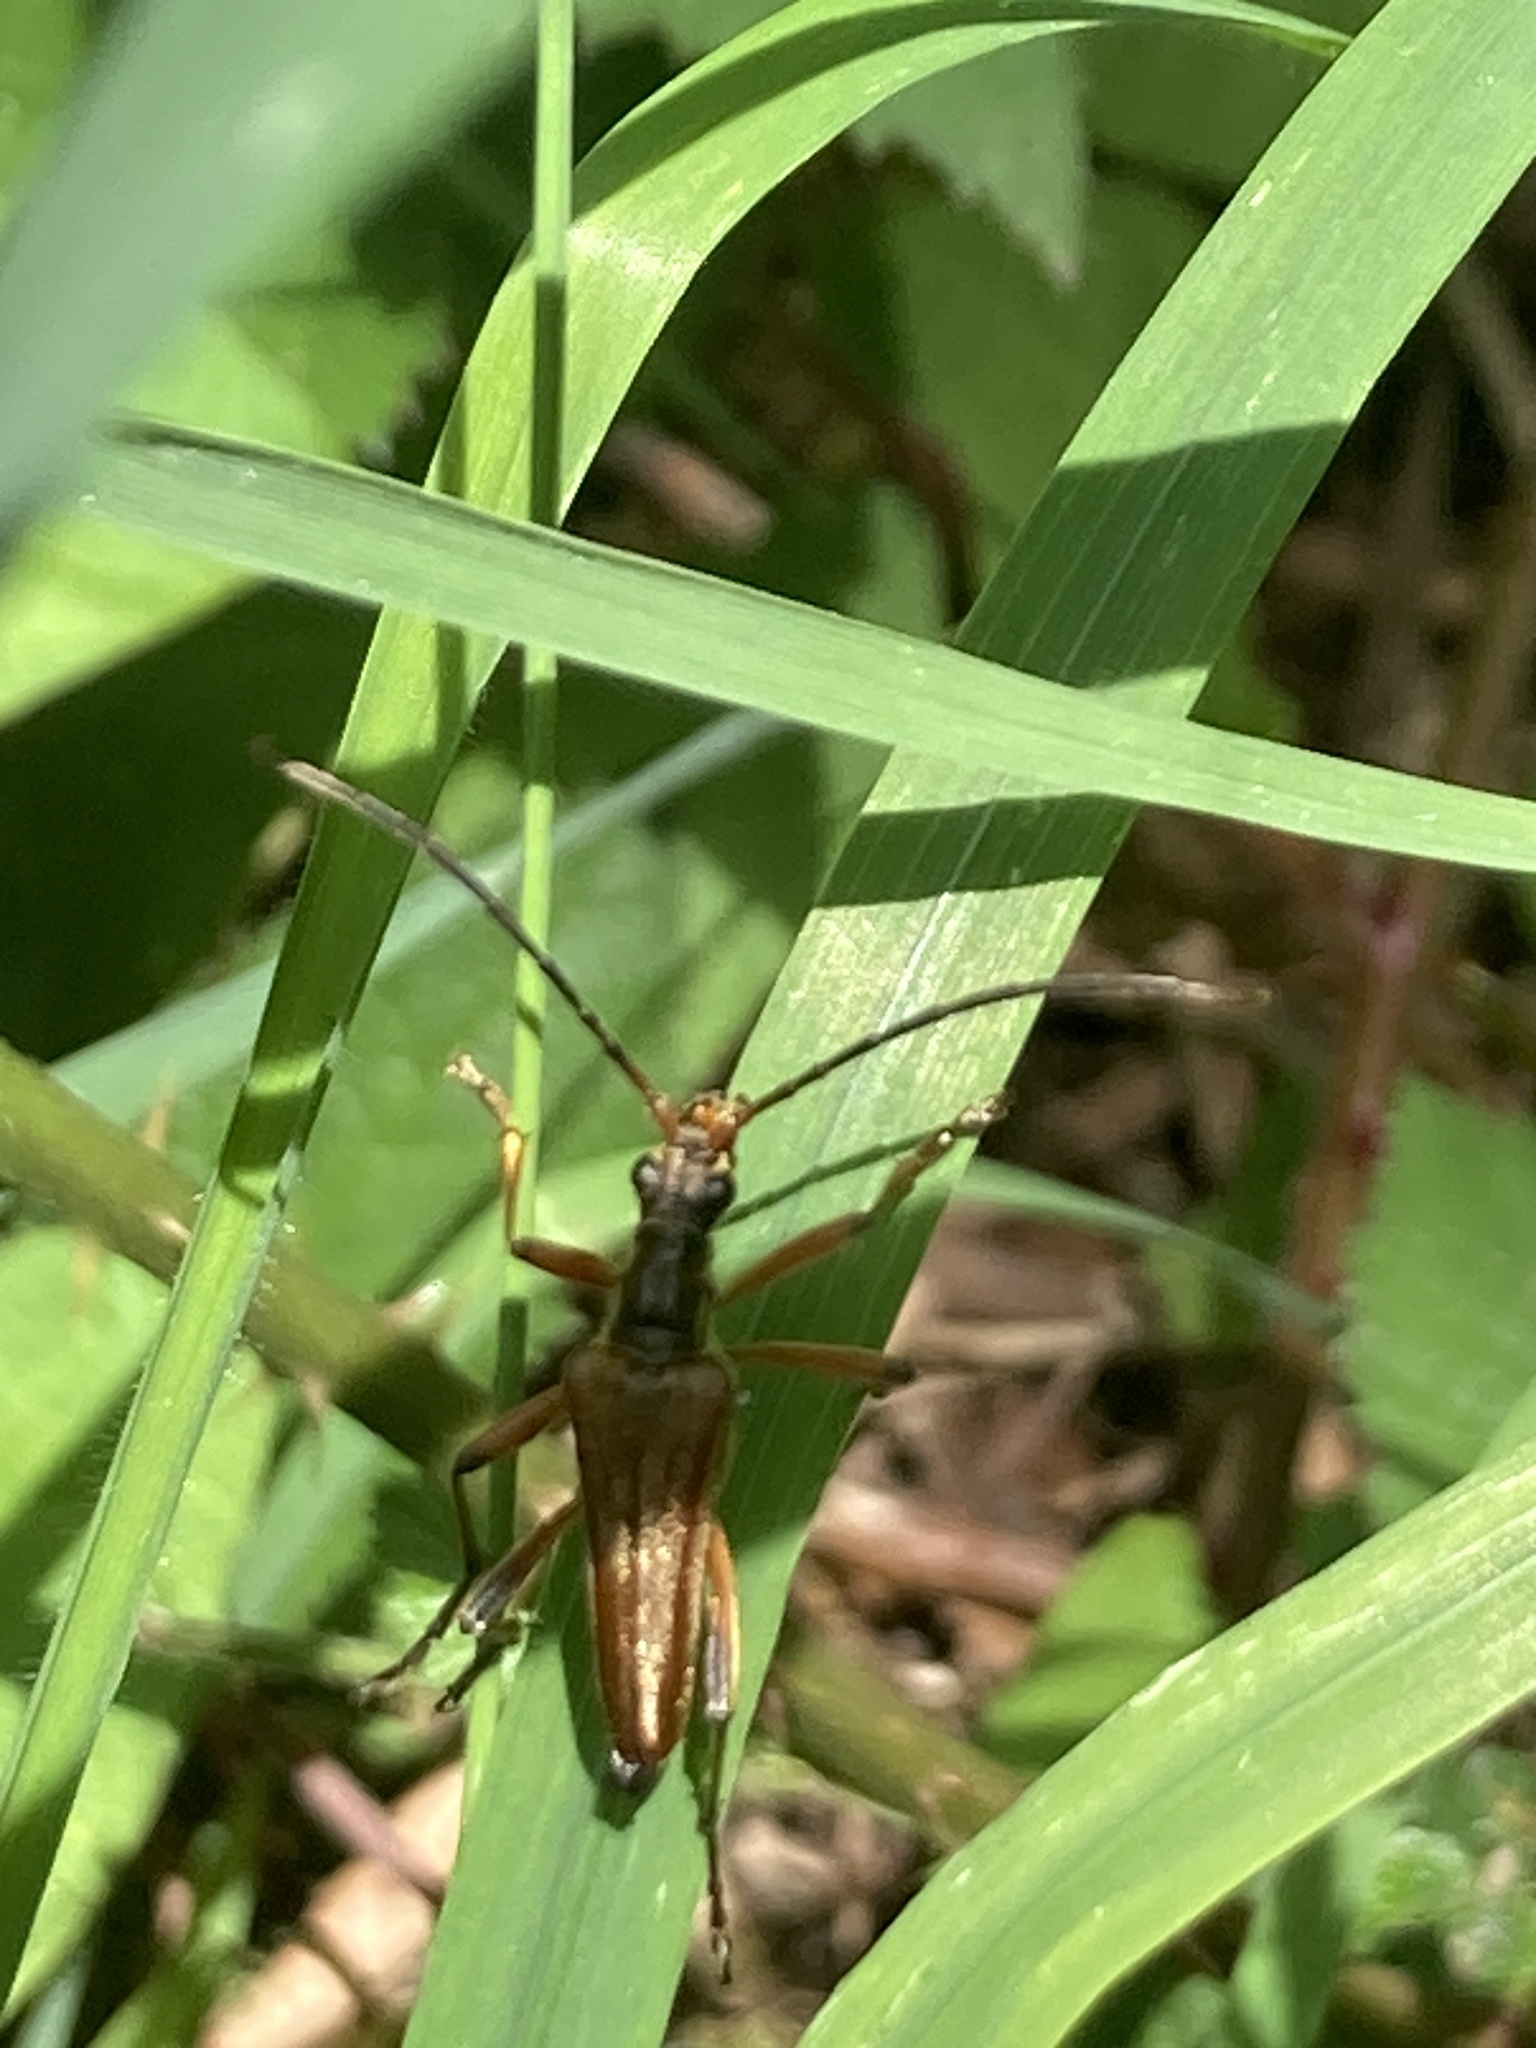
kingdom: Animalia
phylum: Arthropoda
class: Insecta
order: Coleoptera
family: Cerambycidae
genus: Stenocorus
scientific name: Stenocorus meridianus
